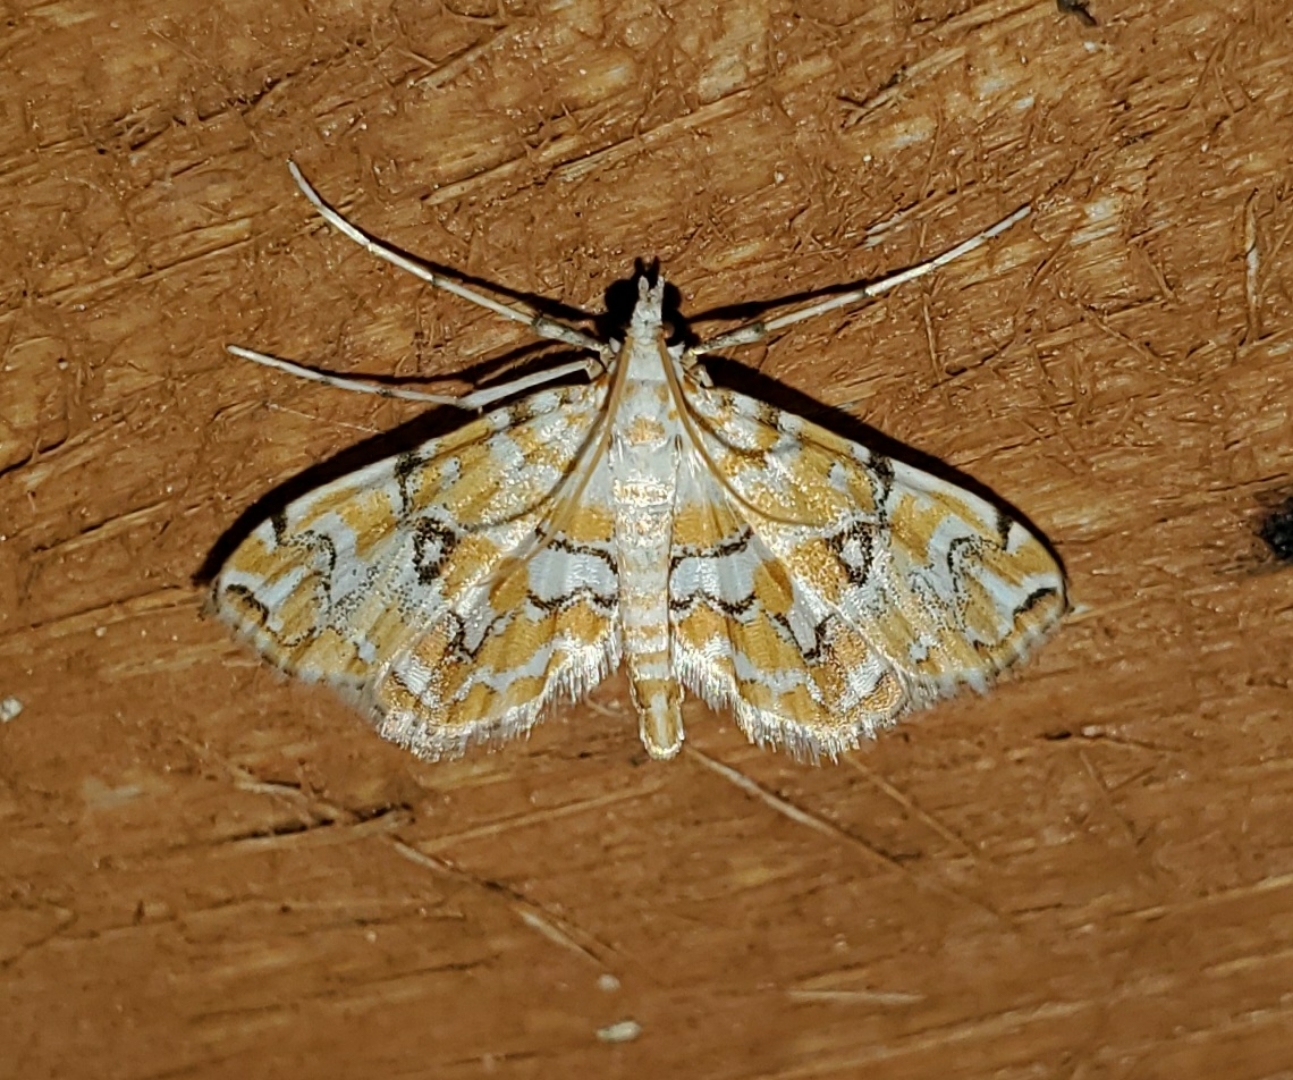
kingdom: Animalia
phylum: Arthropoda
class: Insecta
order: Lepidoptera
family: Crambidae
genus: Elophila
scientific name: Elophila icciusalis
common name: Pondside pyralid moth
